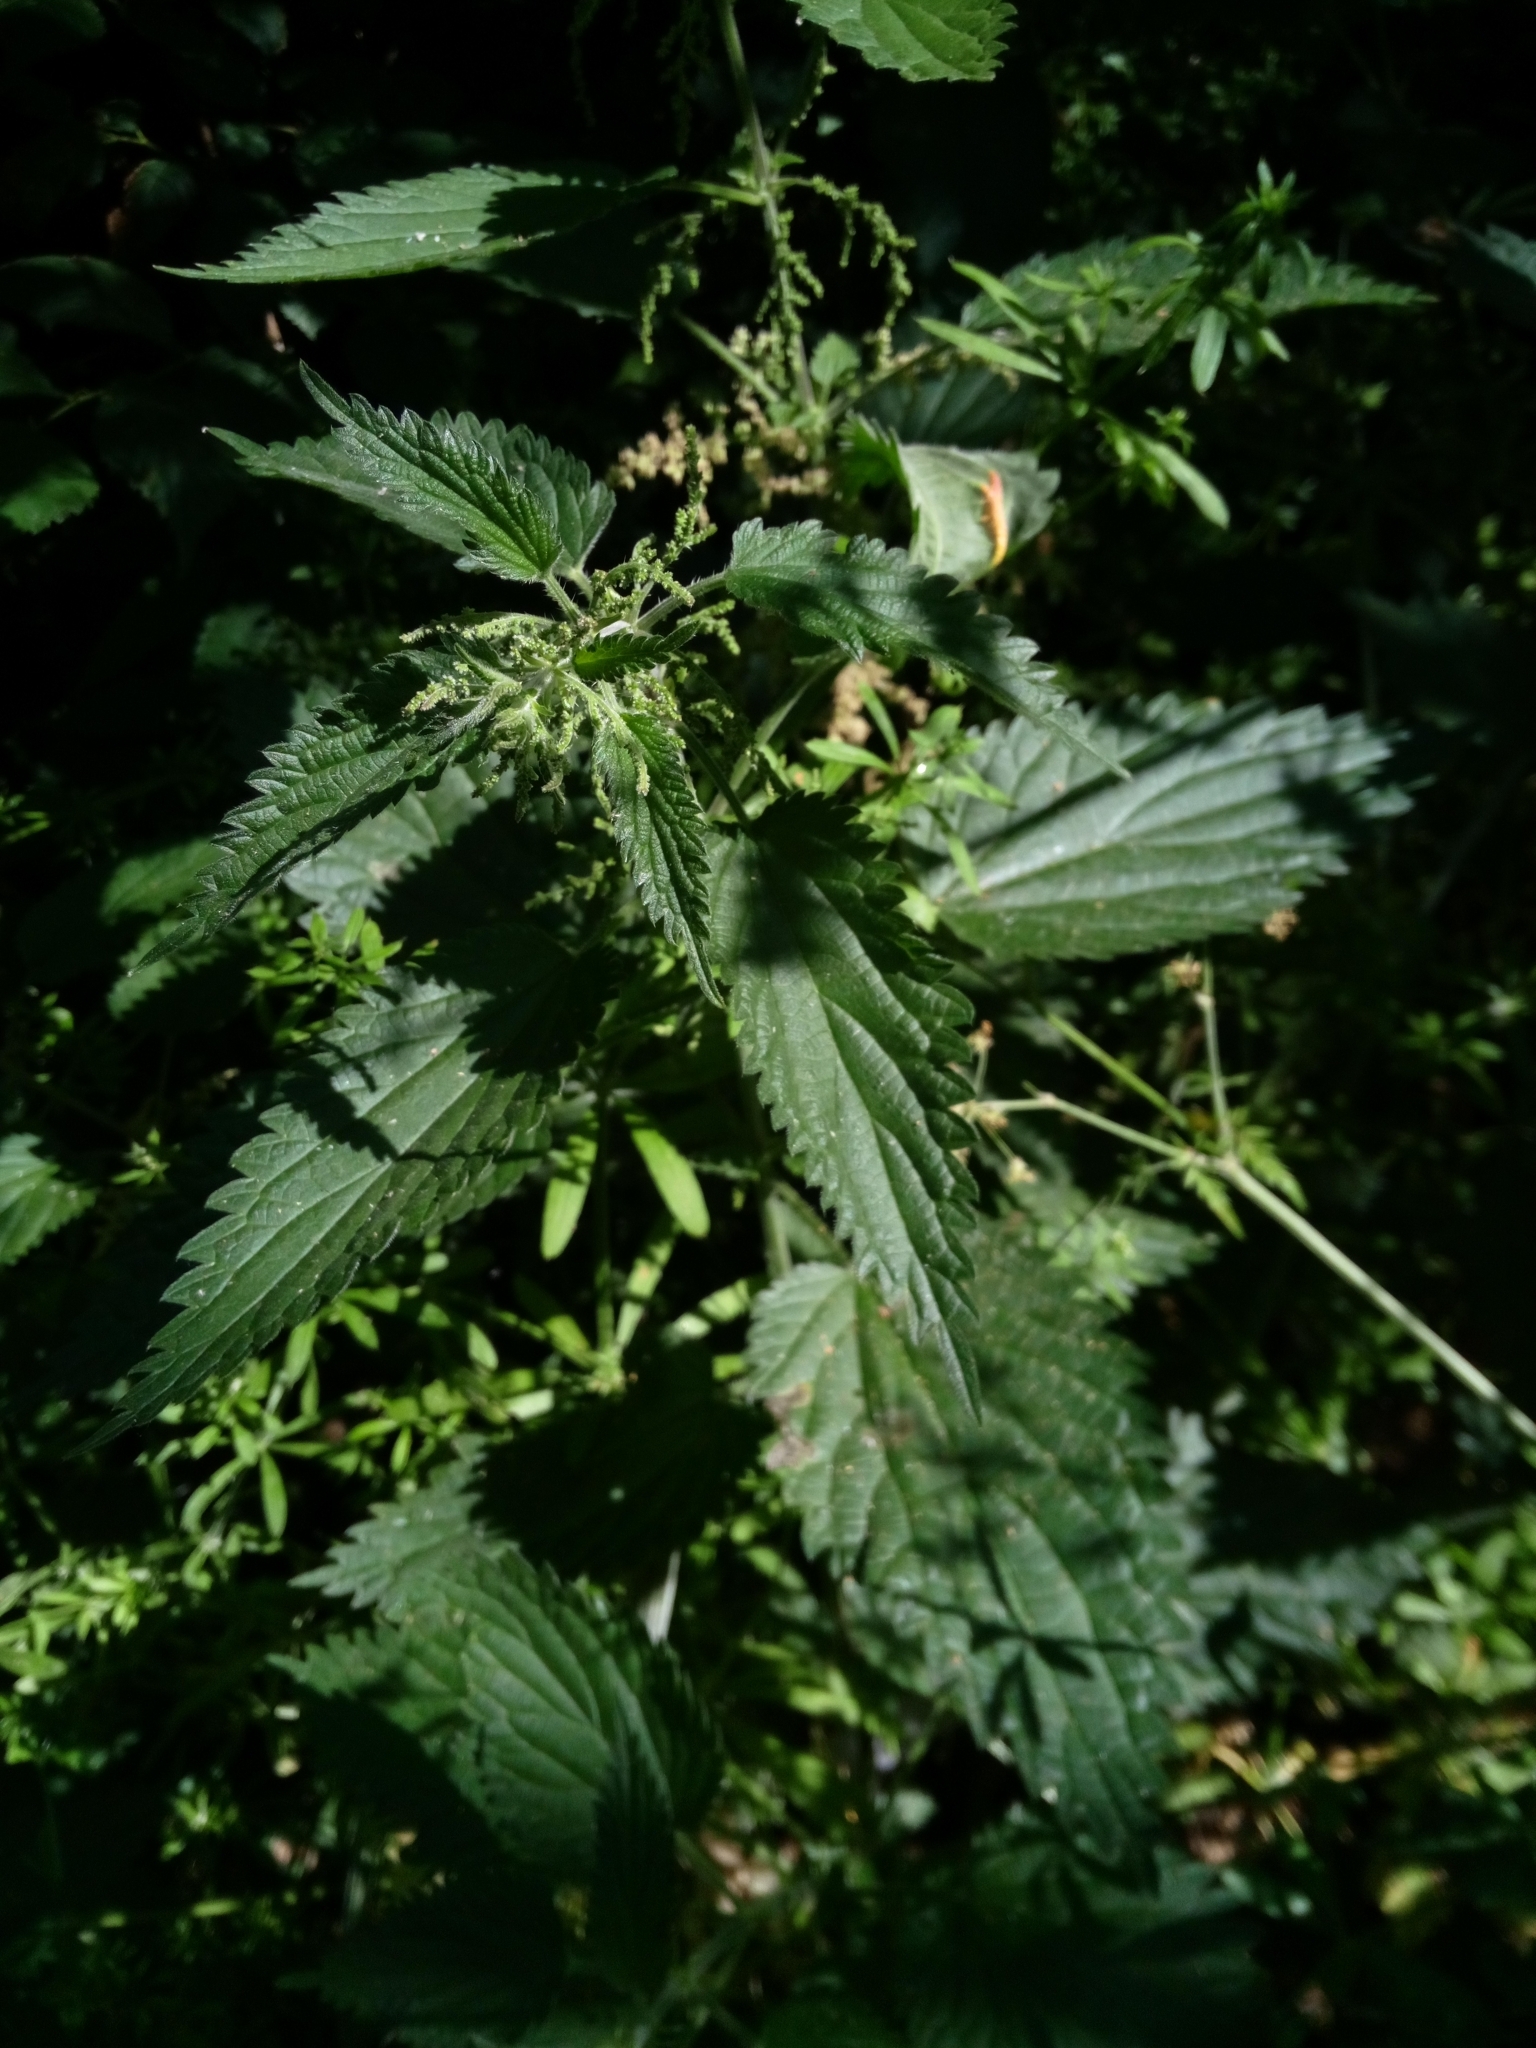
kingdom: Plantae
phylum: Tracheophyta
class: Magnoliopsida
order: Rosales
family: Urticaceae
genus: Urtica
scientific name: Urtica dioica
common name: Common nettle
